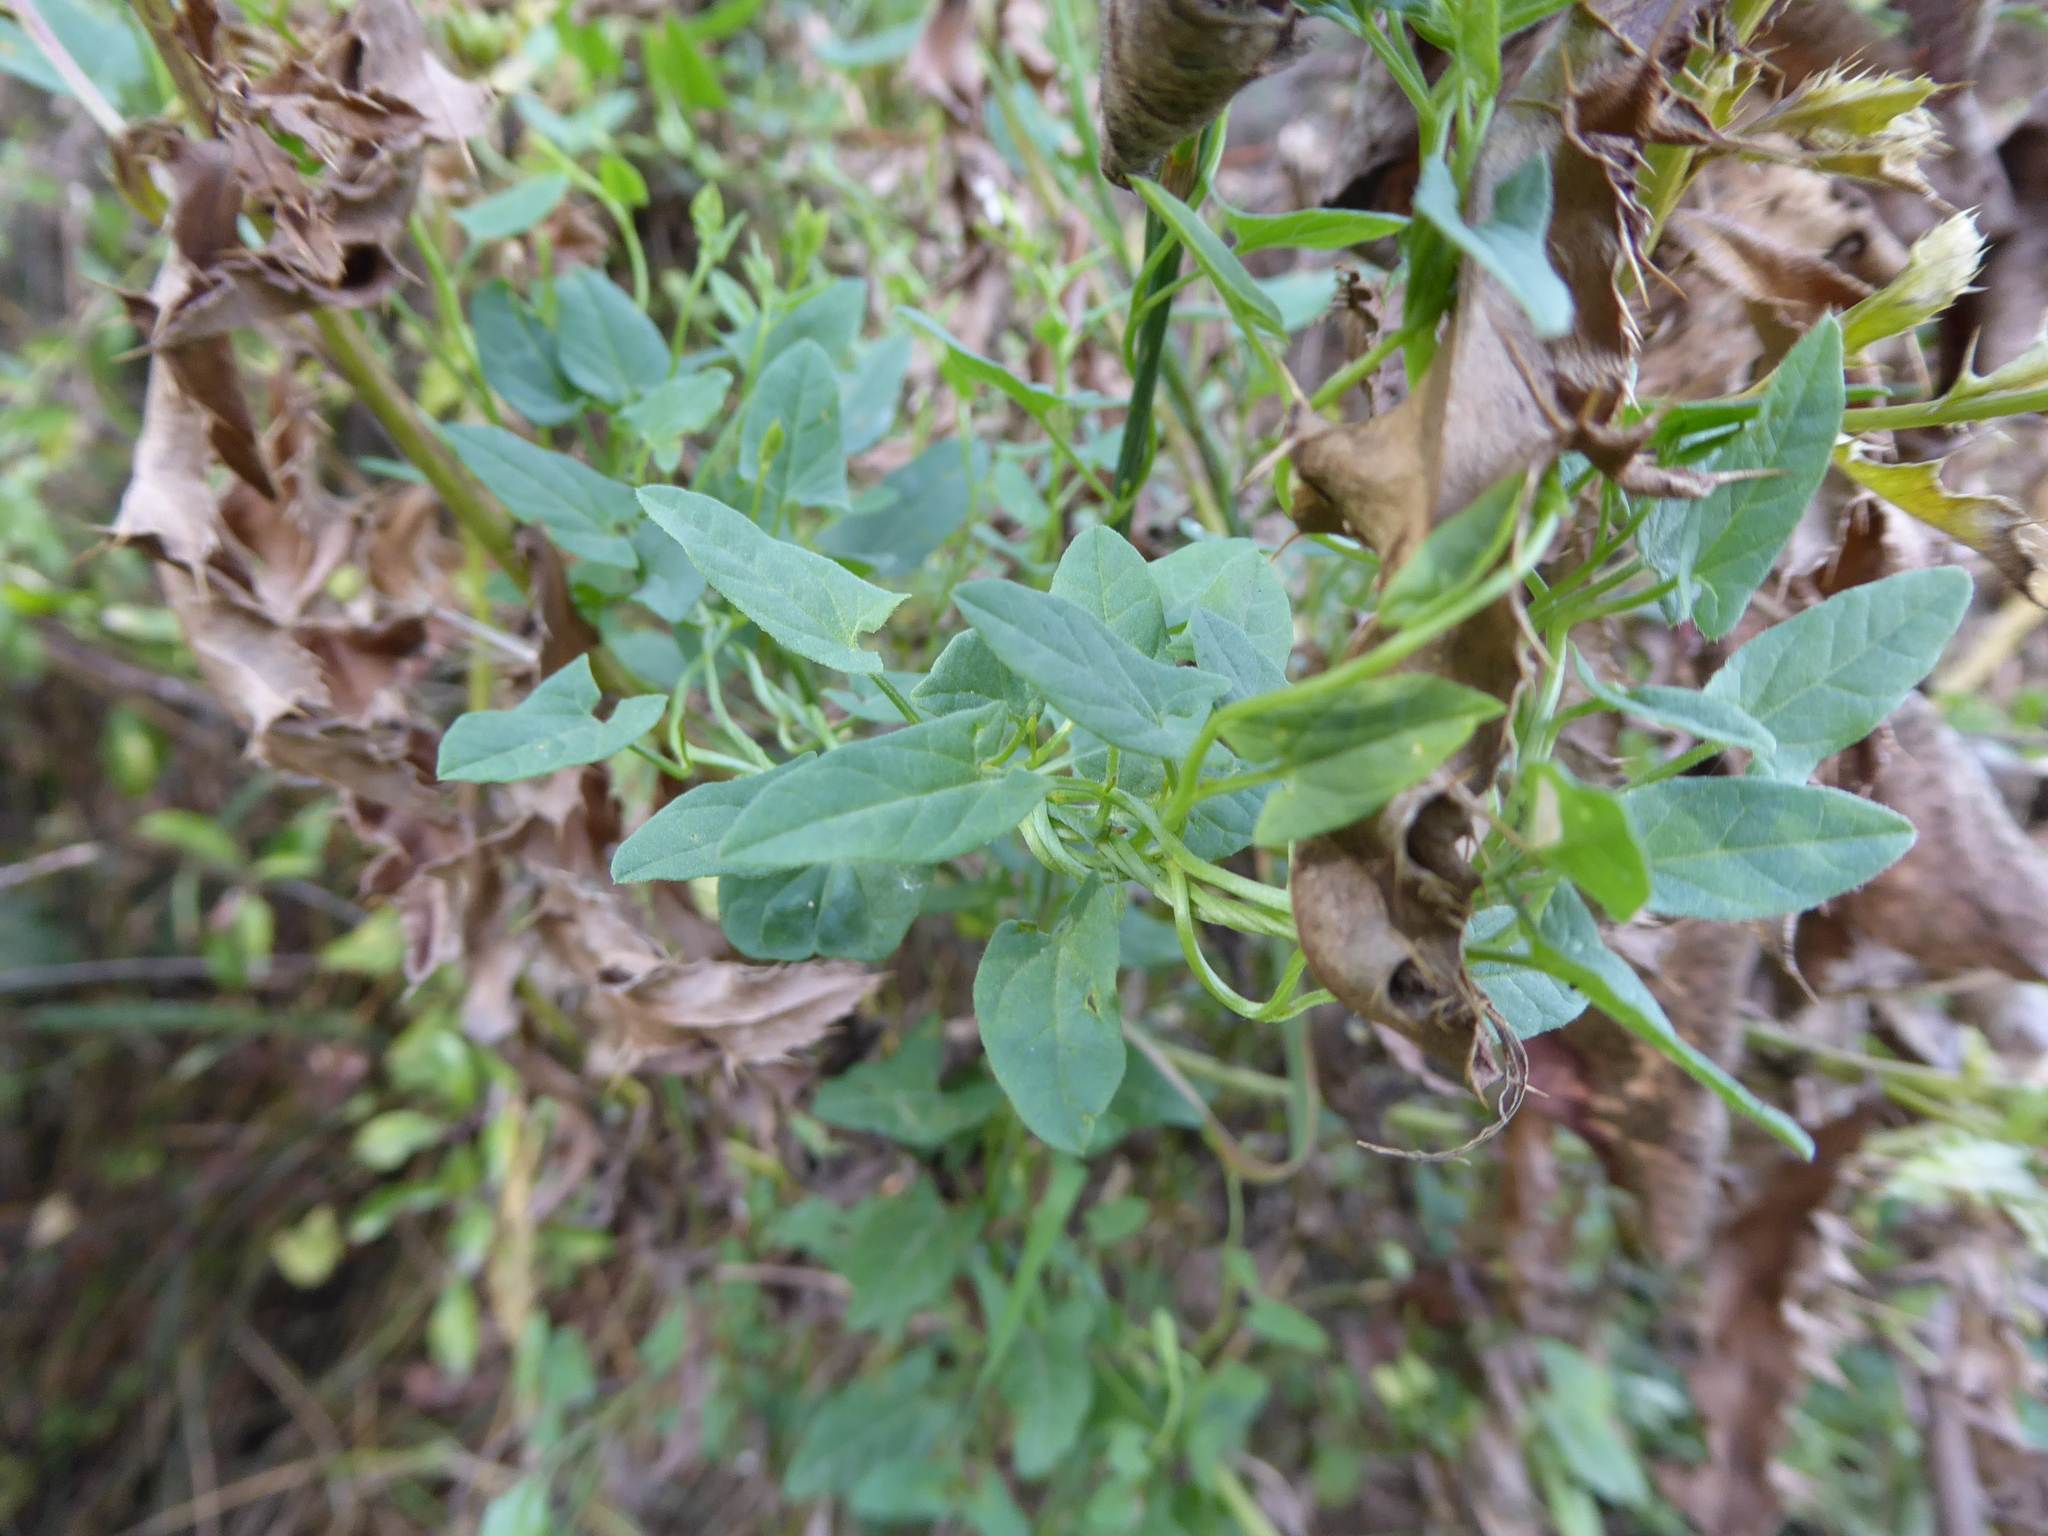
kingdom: Plantae
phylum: Tracheophyta
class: Magnoliopsida
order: Solanales
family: Convolvulaceae
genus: Convolvulus
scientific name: Convolvulus arvensis
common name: Field bindweed
